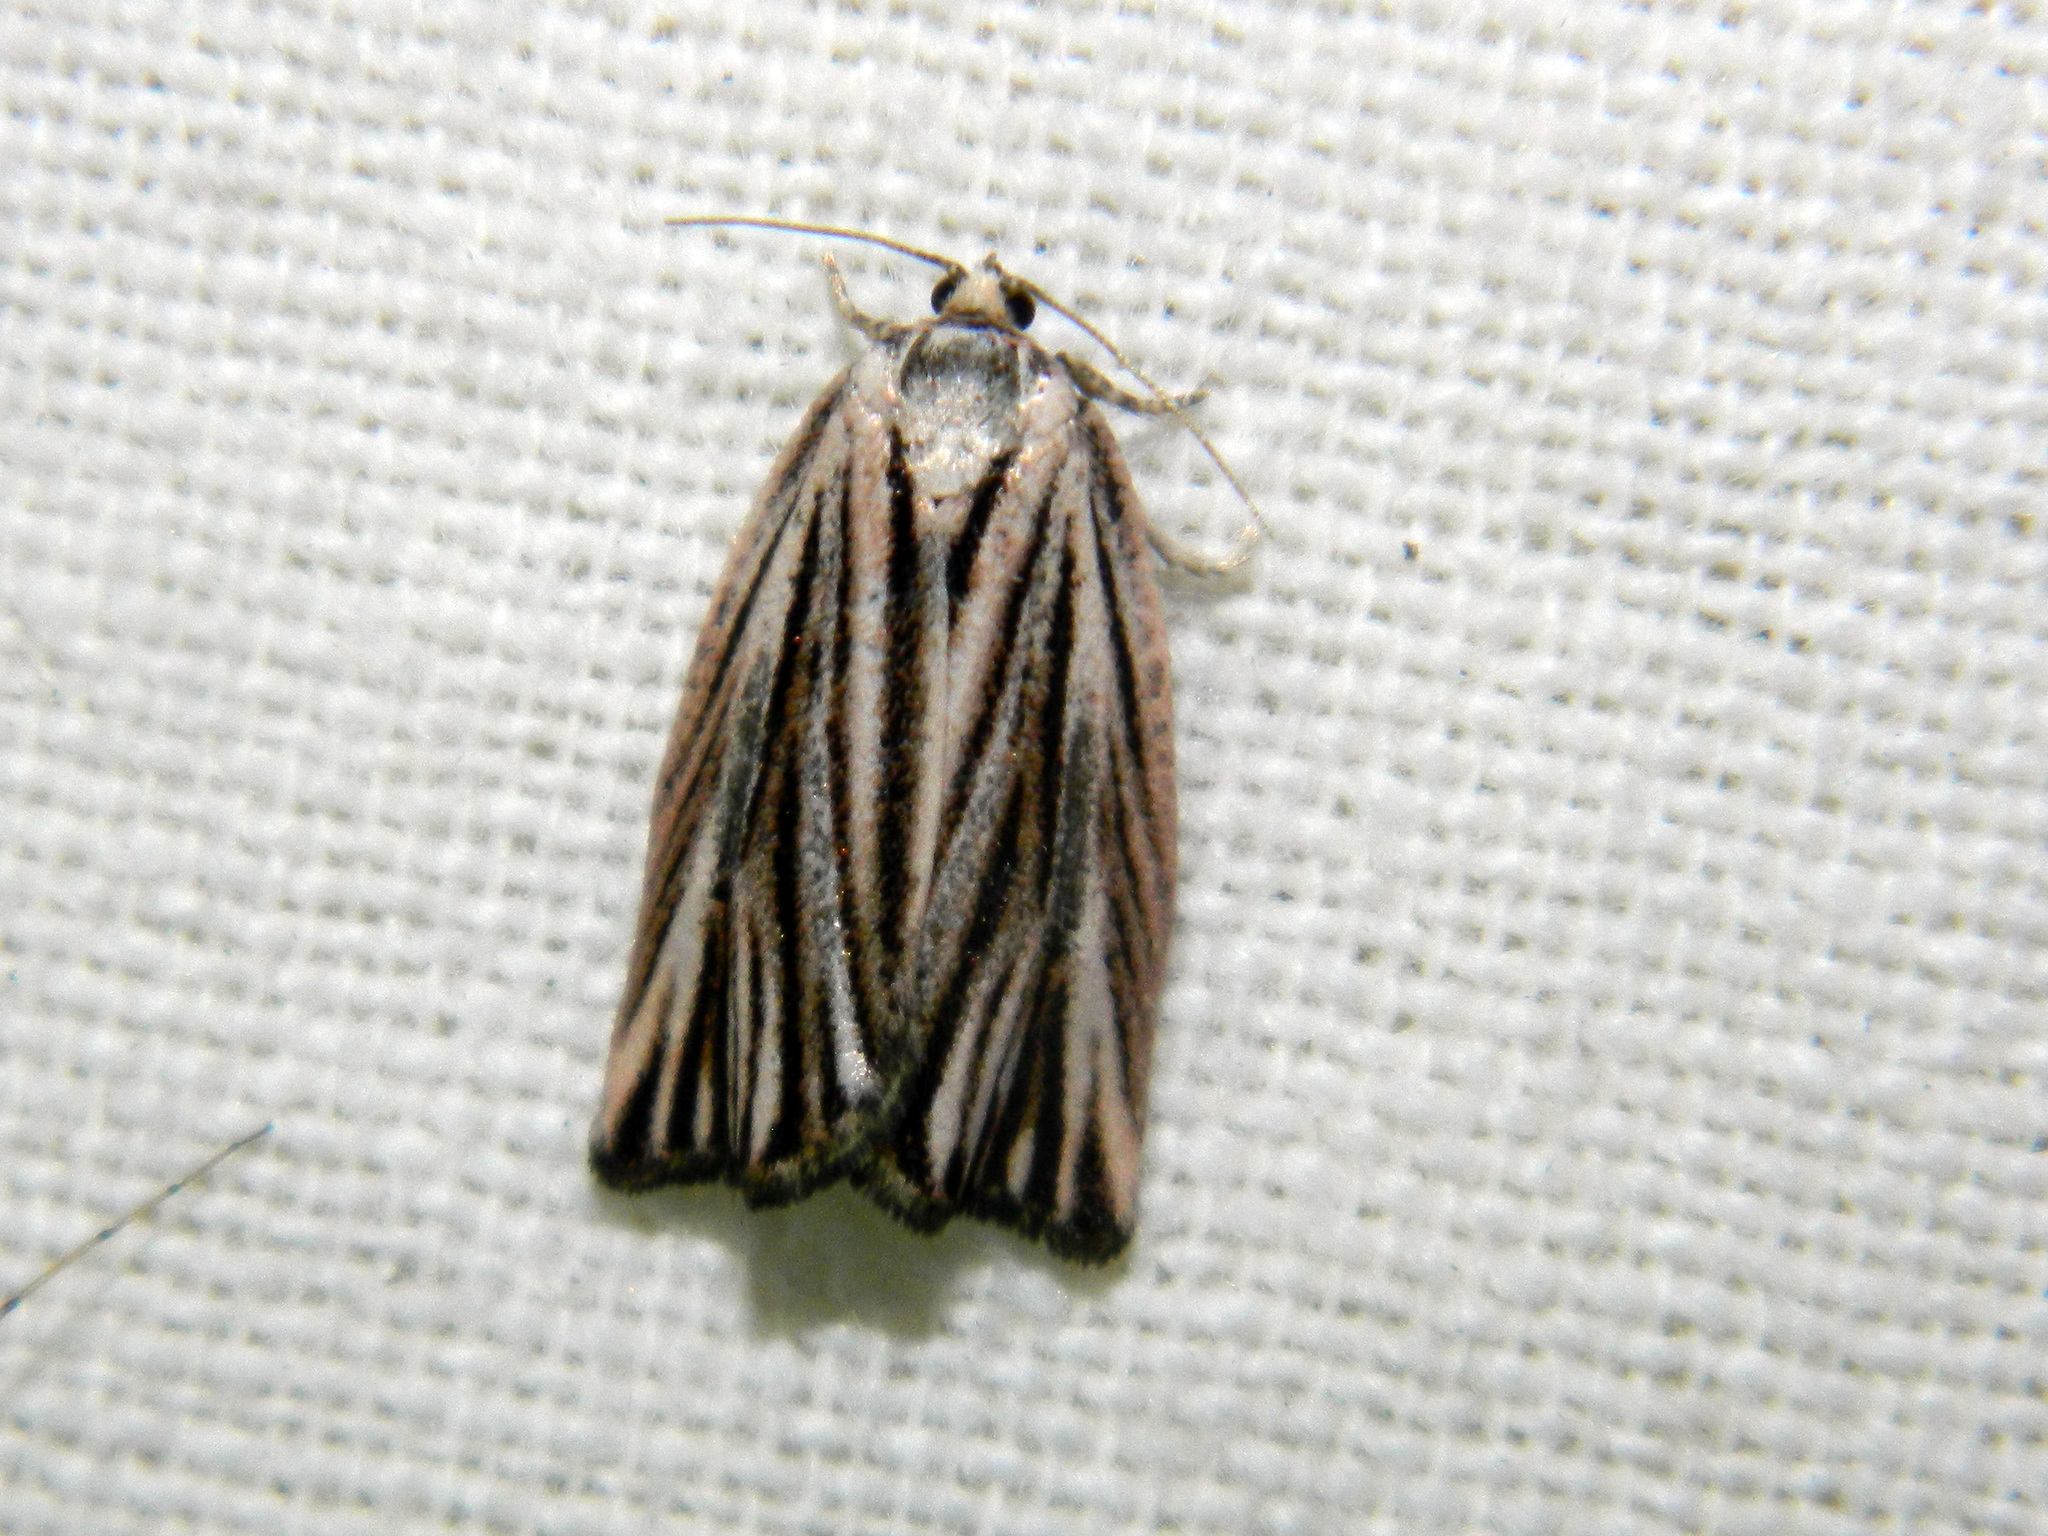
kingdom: Animalia
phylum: Arthropoda
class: Insecta
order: Lepidoptera
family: Tortricidae
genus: Archips
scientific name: Archips strianus
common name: Striated tortrix moth
